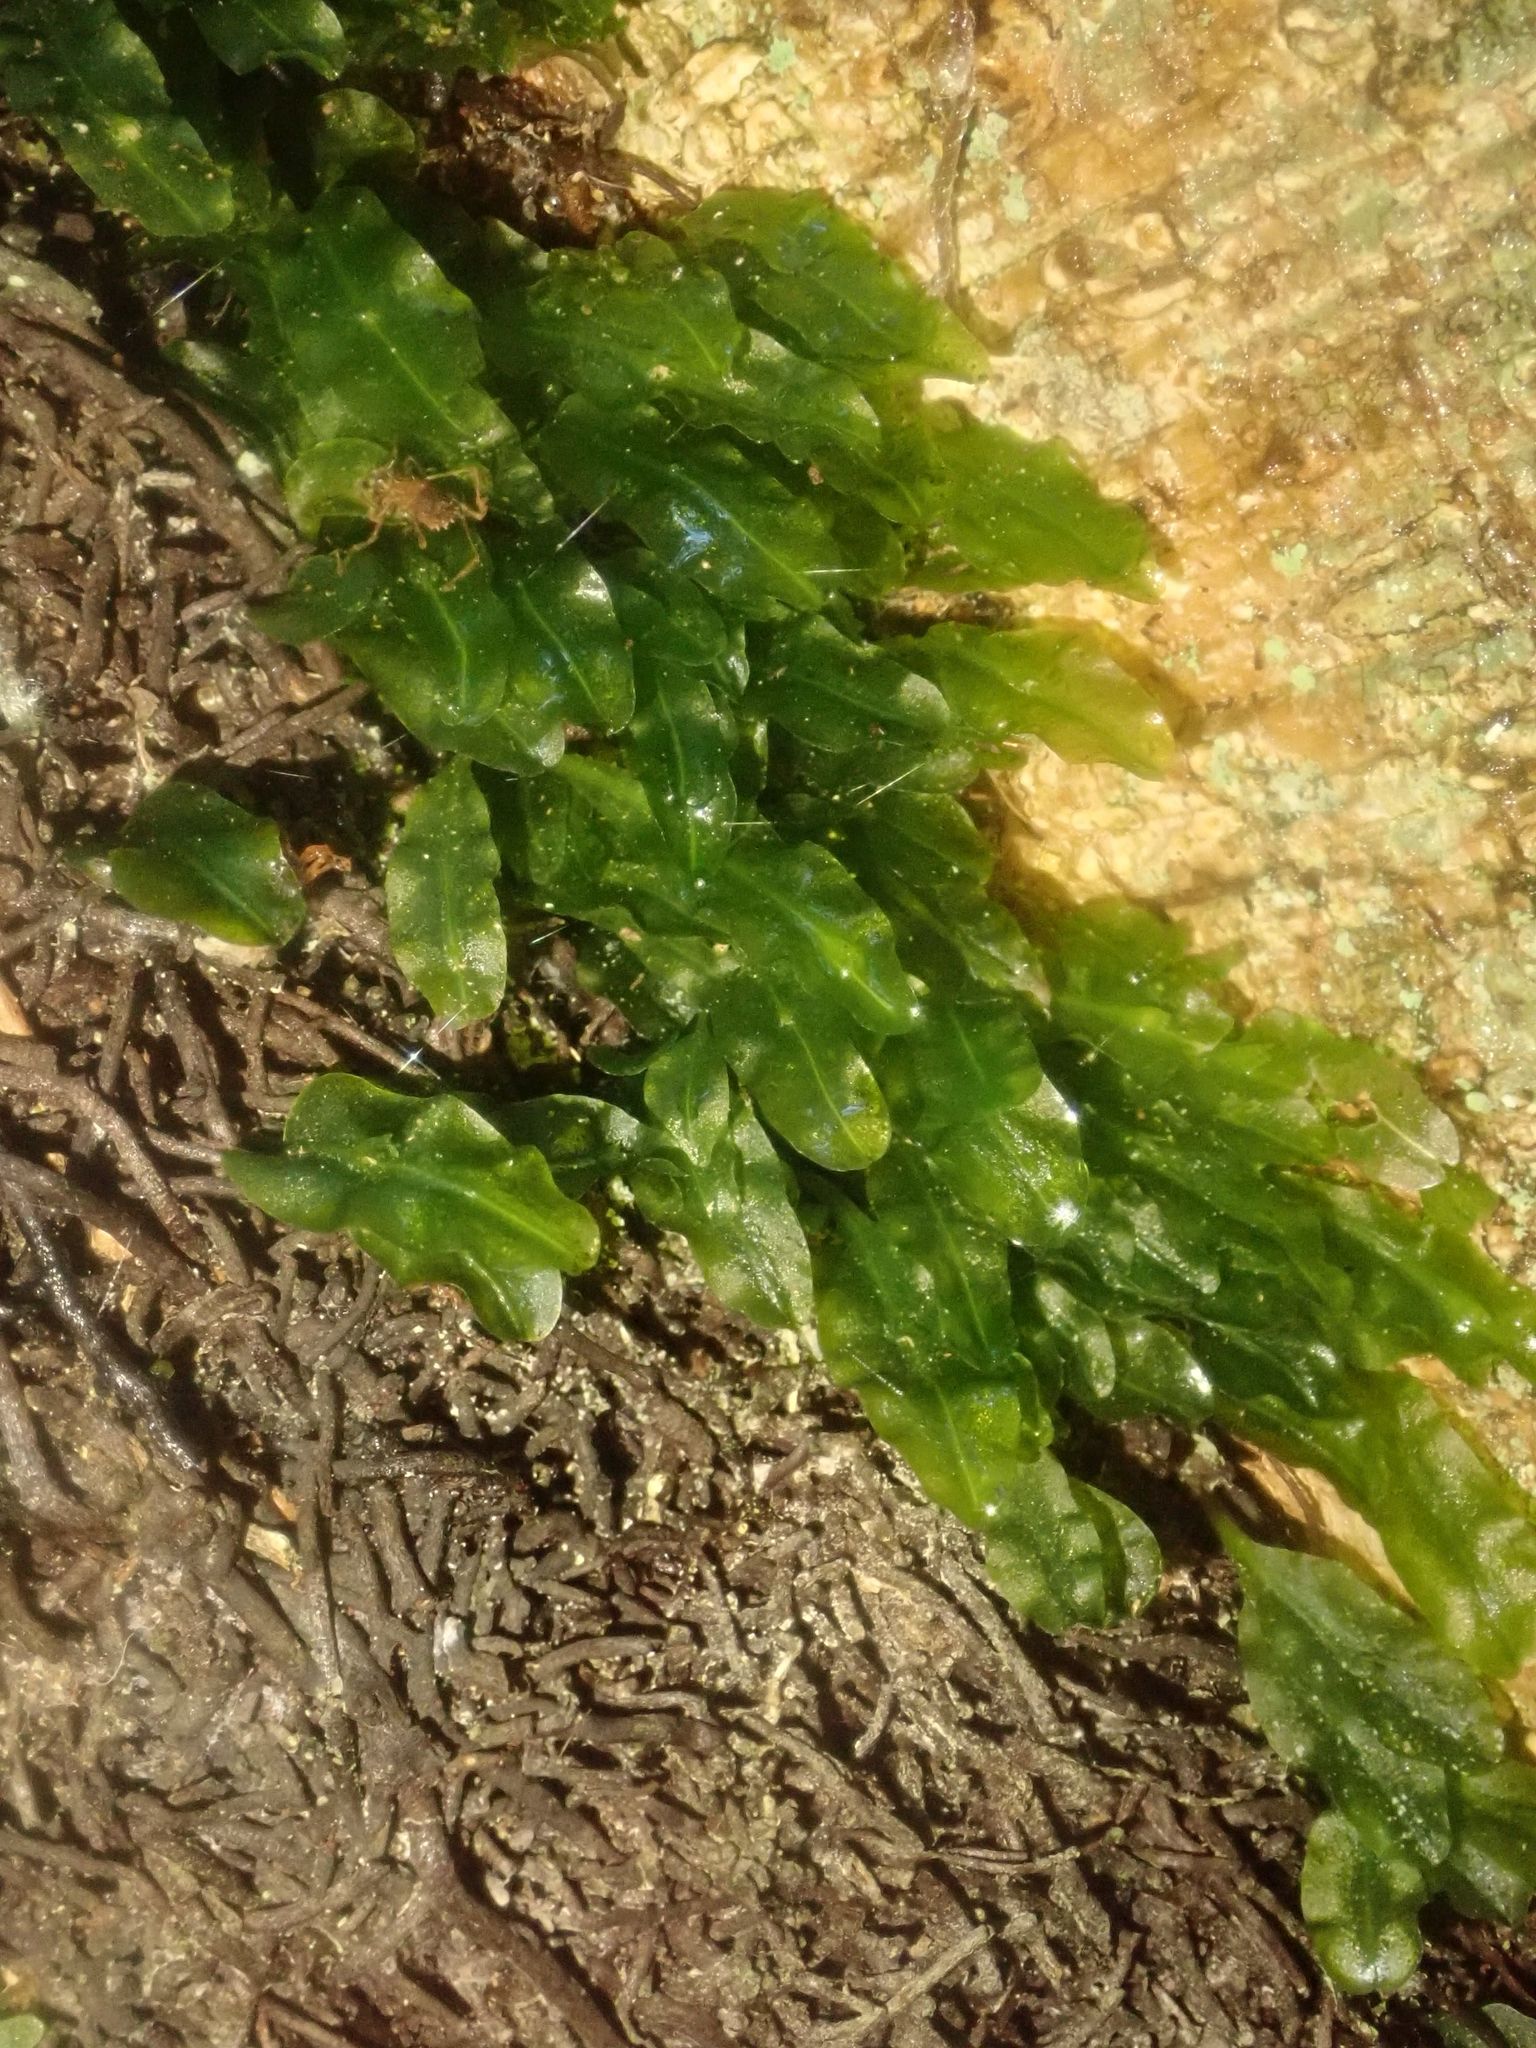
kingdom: Plantae
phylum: Marchantiophyta
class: Jungermanniopsida
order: Pallaviciniales
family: Pallaviciniaceae
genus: Symphyogyna
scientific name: Symphyogyna subsimplex
